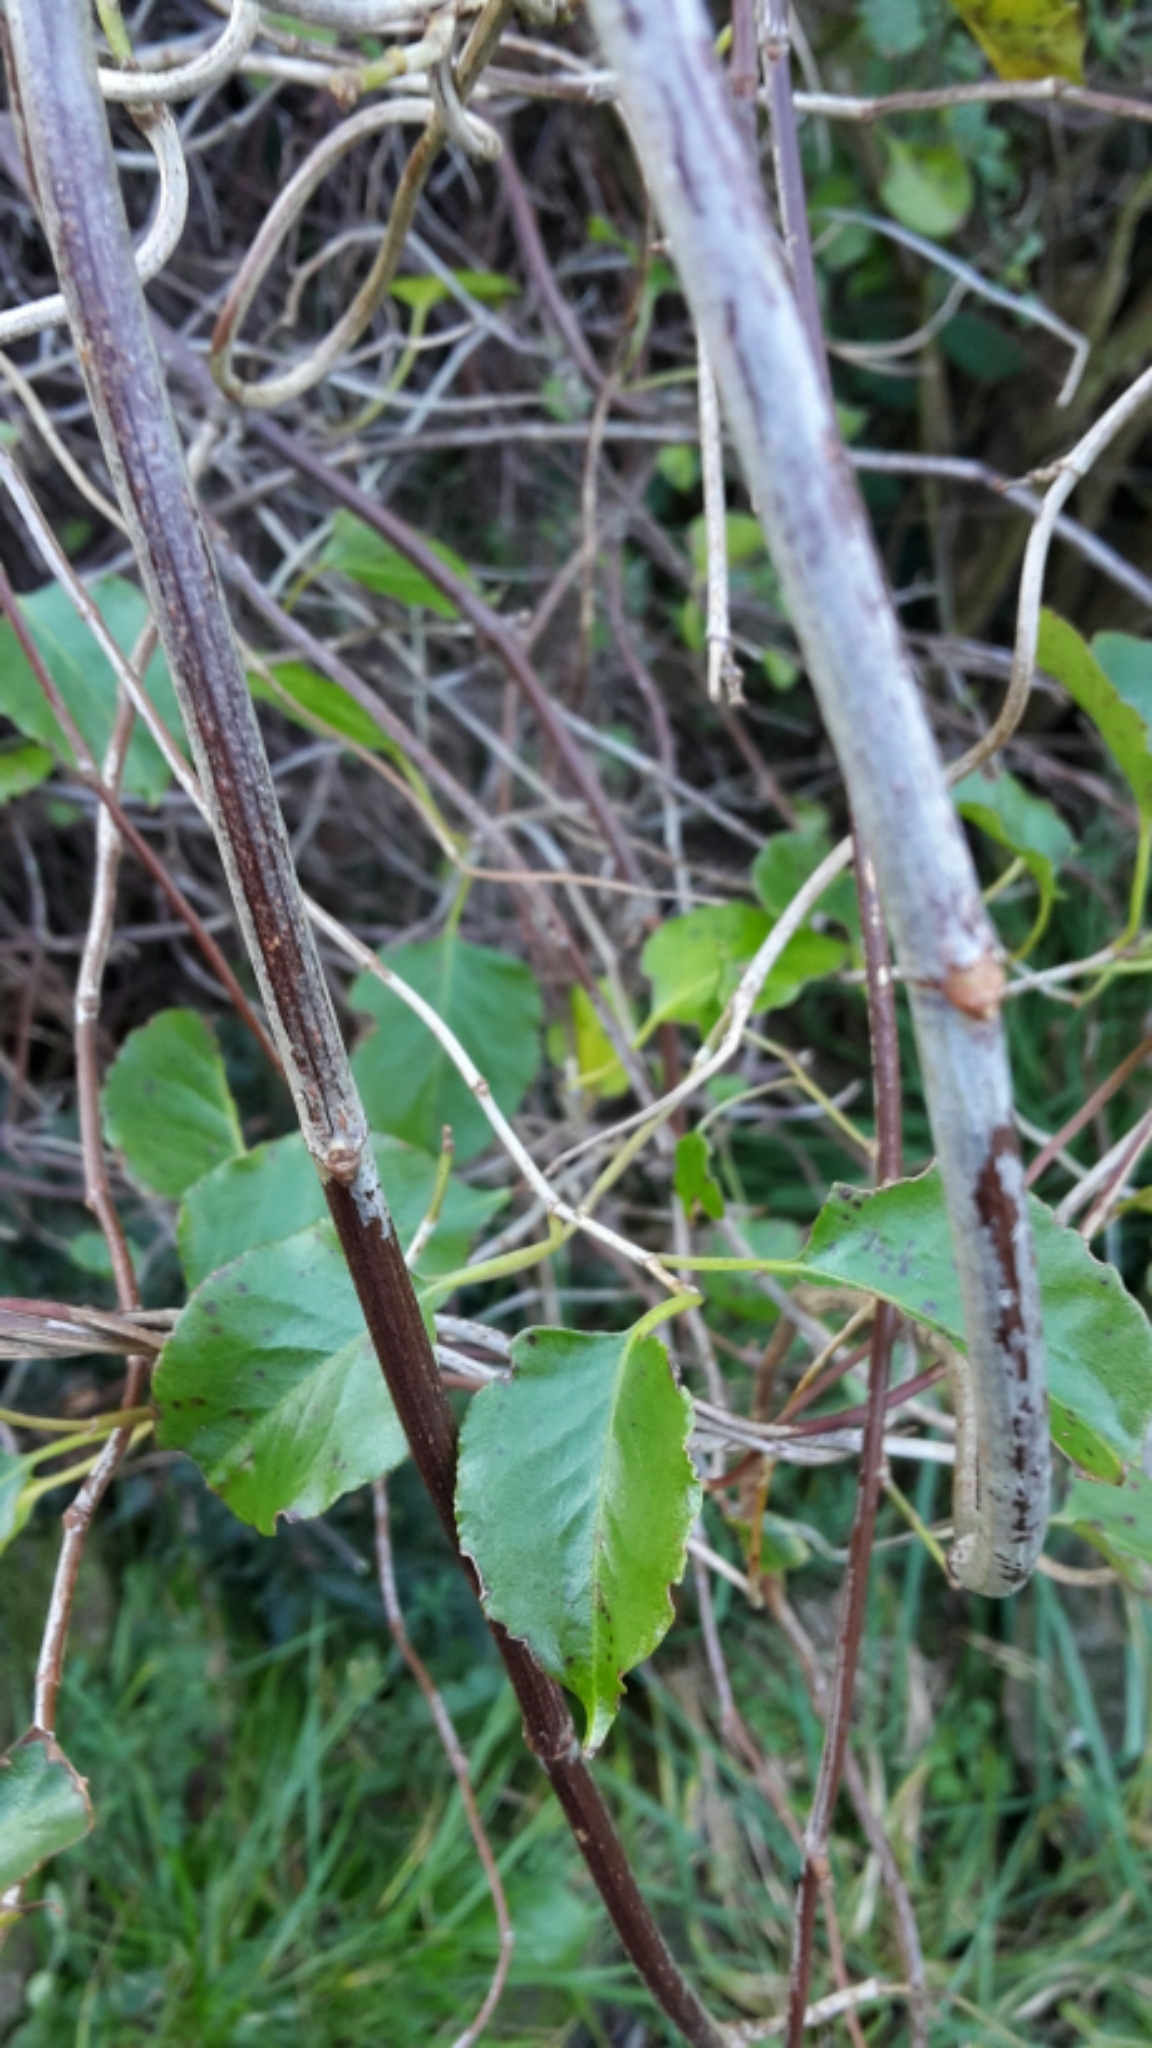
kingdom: Plantae
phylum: Tracheophyta
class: Magnoliopsida
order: Caryophyllales
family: Polygonaceae
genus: Muehlenbeckia
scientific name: Muehlenbeckia australis
